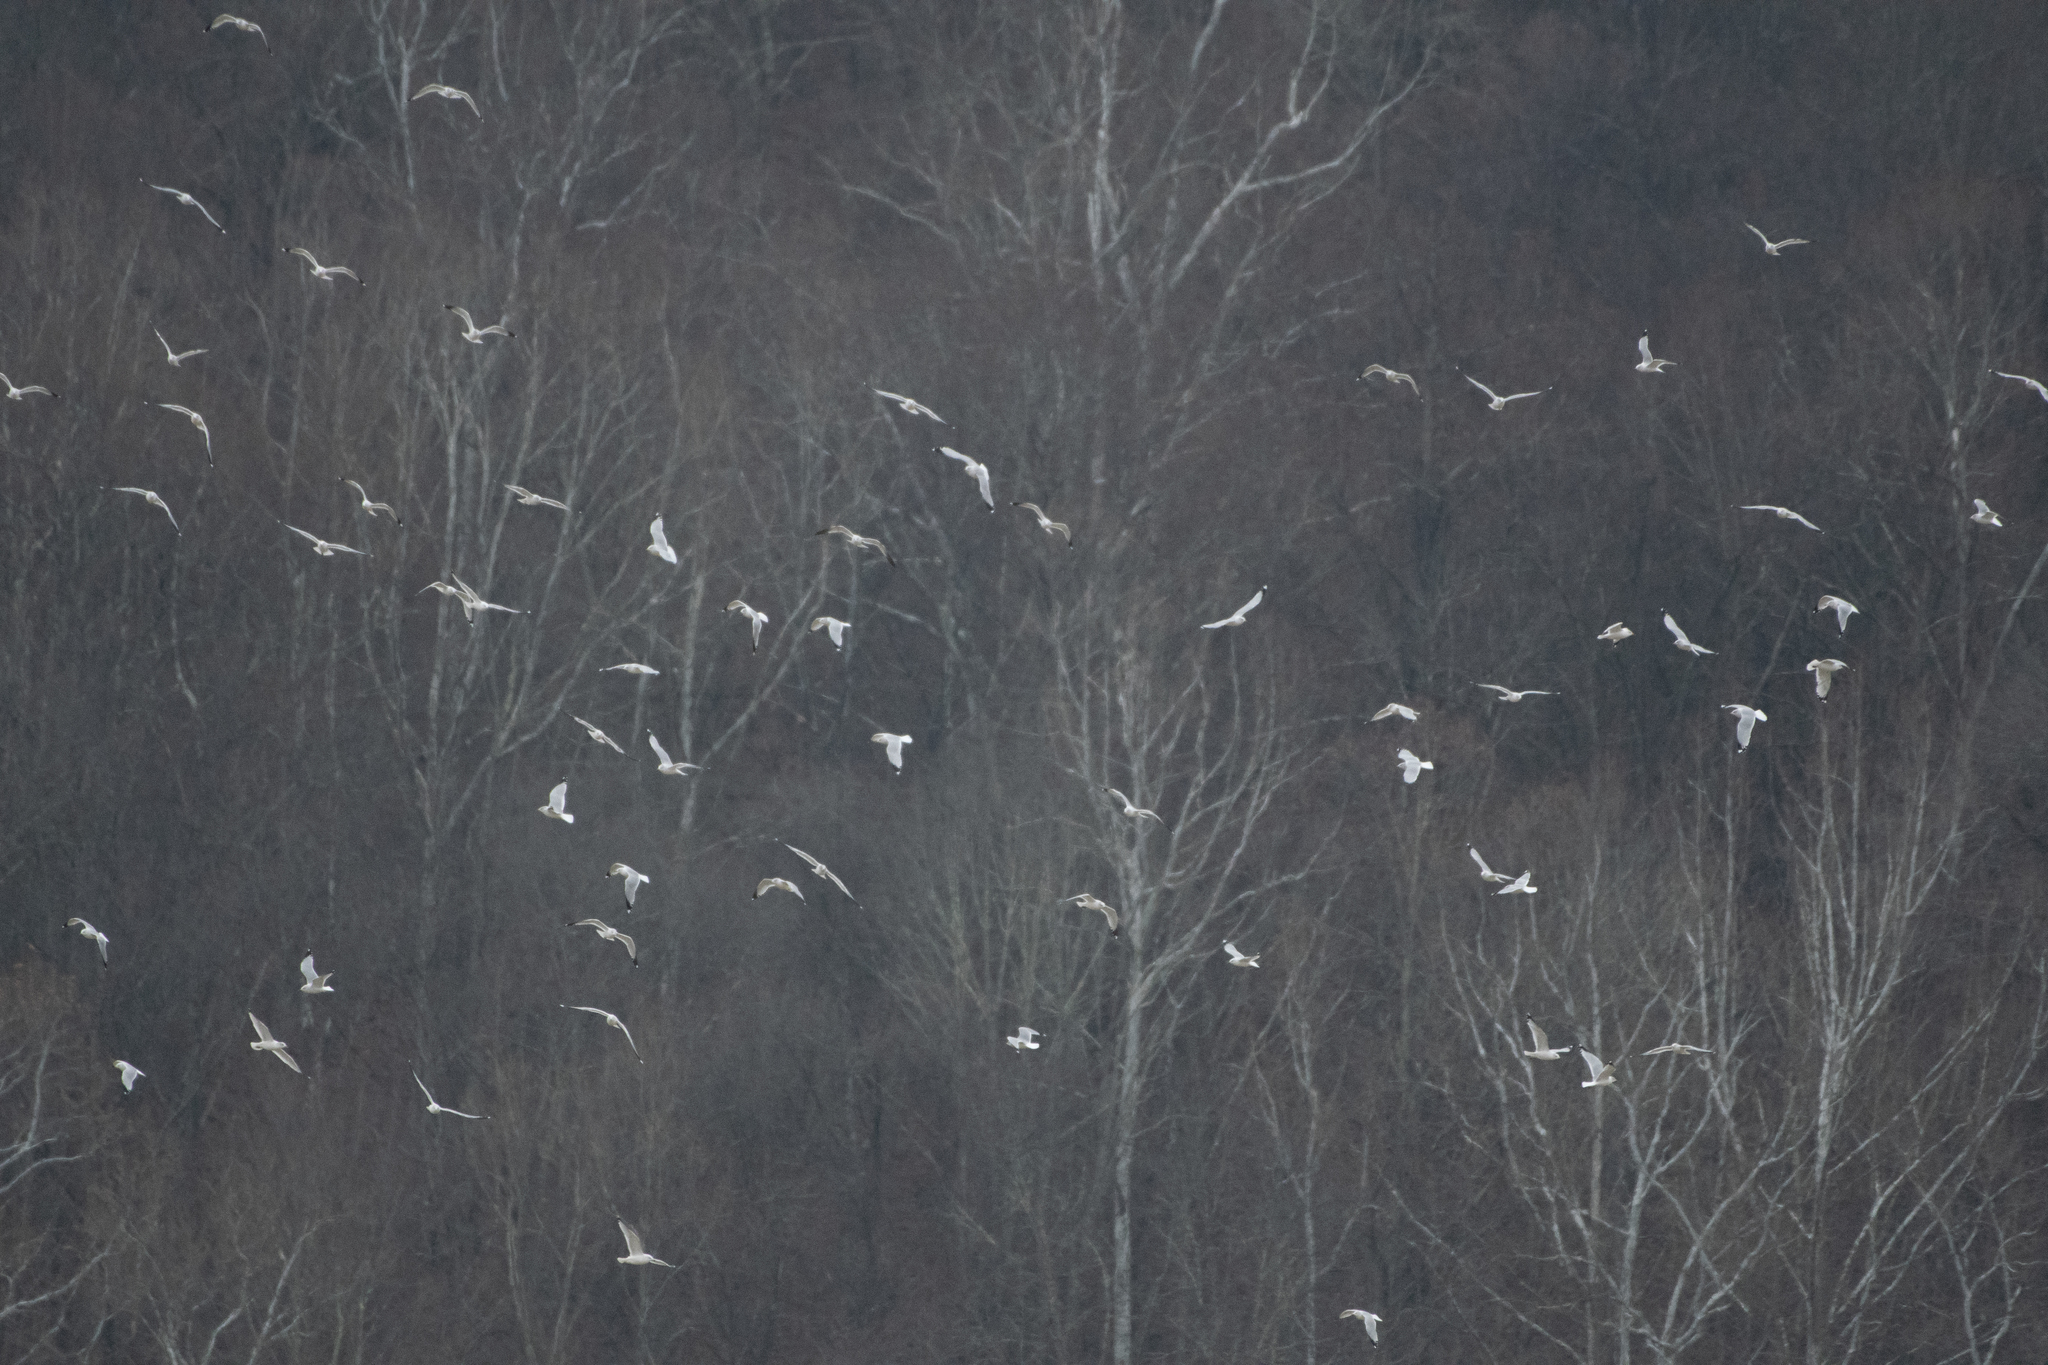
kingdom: Animalia
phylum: Chordata
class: Aves
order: Charadriiformes
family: Laridae
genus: Larus
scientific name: Larus delawarensis
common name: Ring-billed gull
